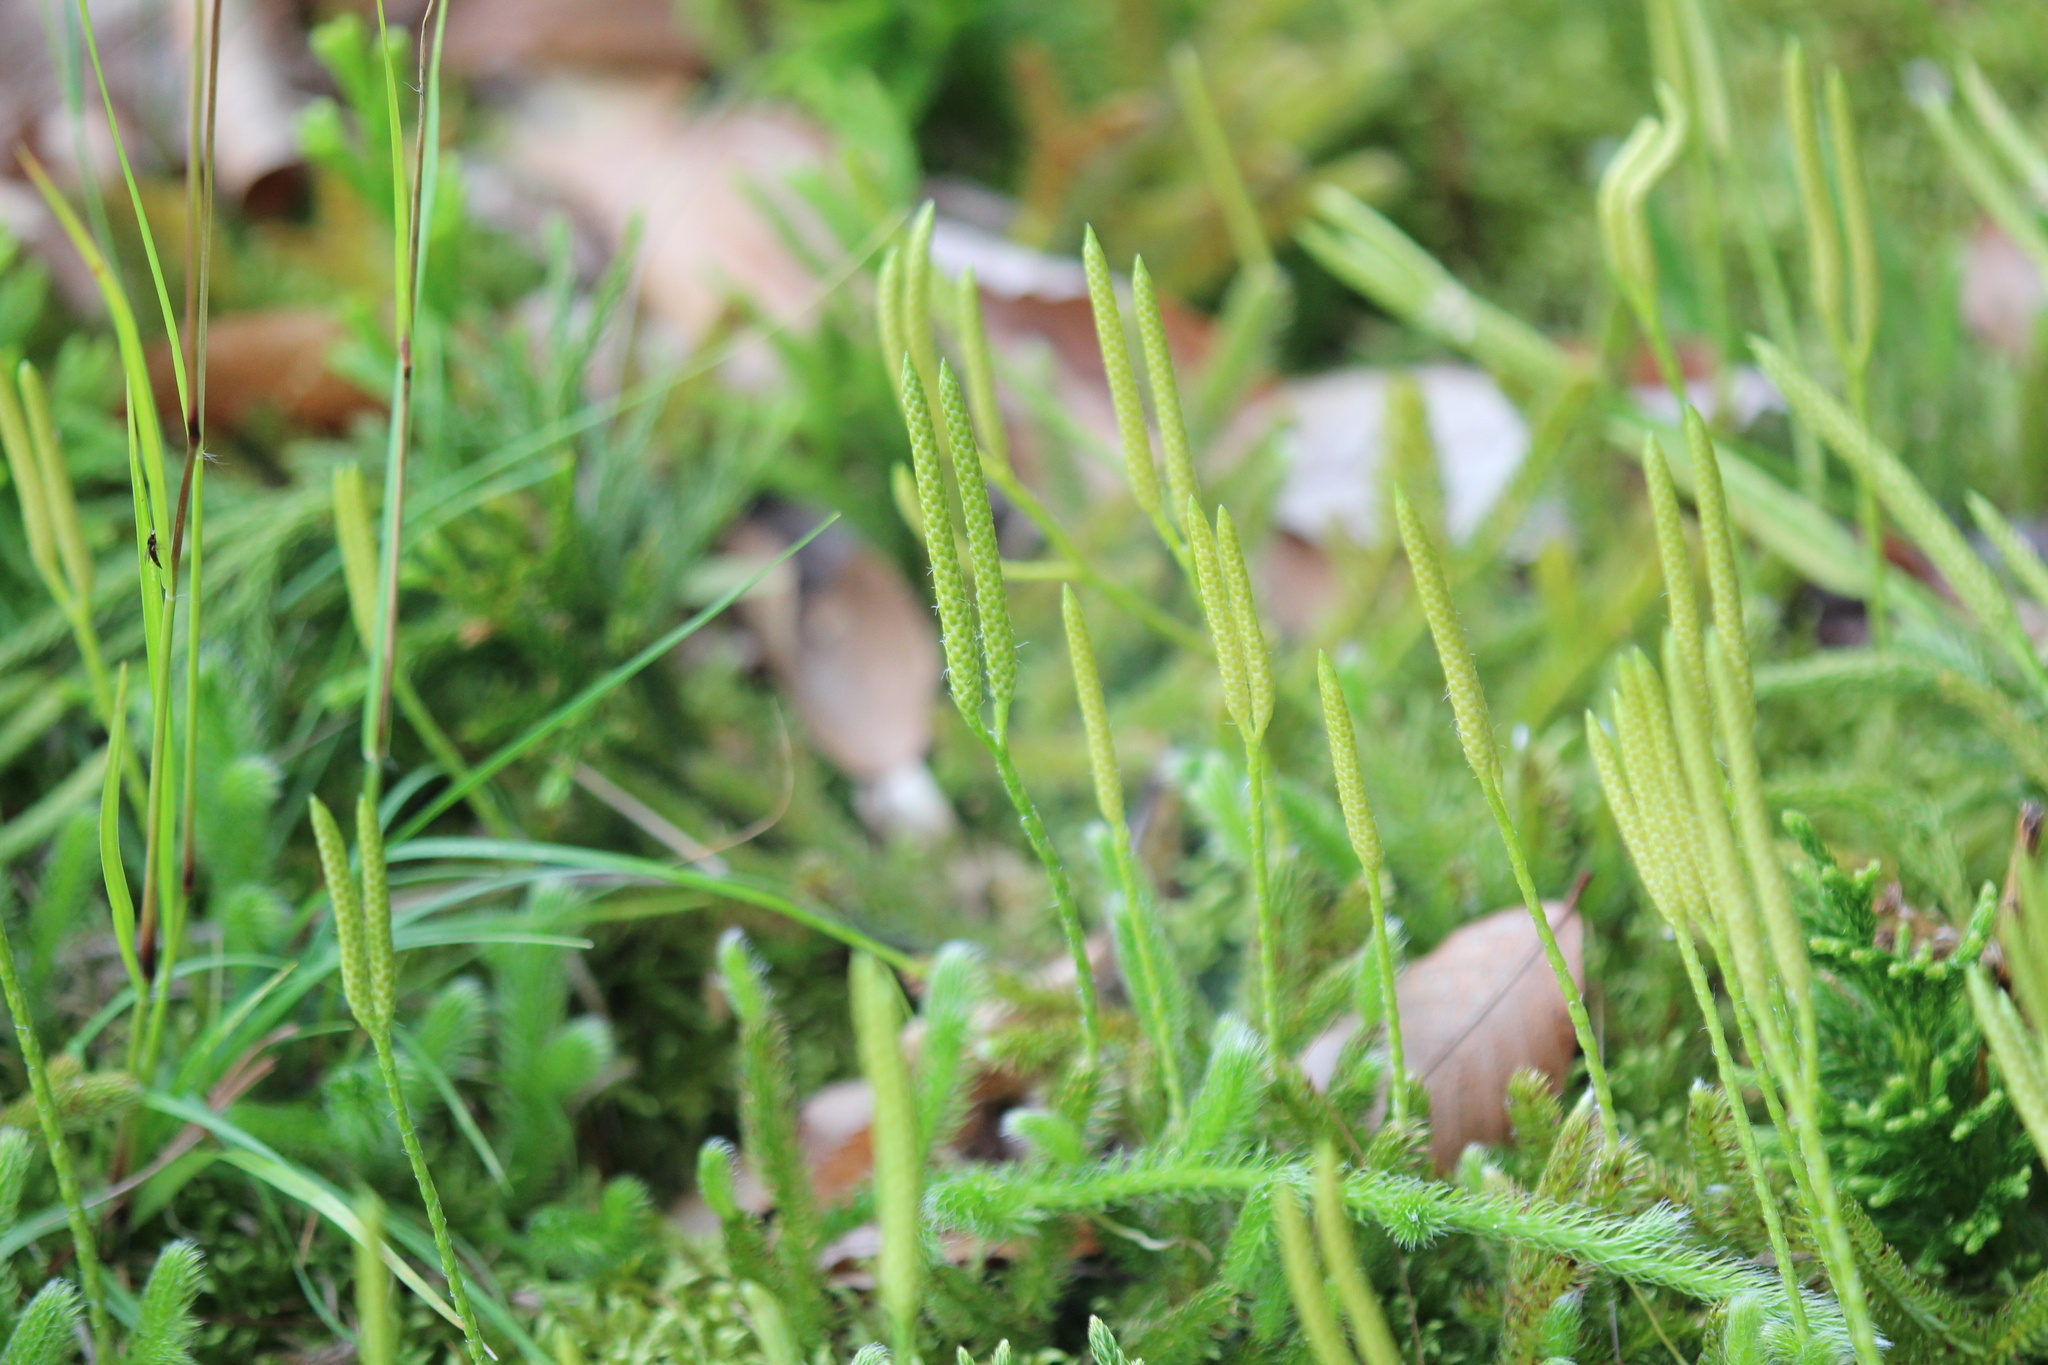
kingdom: Plantae
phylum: Tracheophyta
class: Lycopodiopsida
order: Lycopodiales
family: Lycopodiaceae
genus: Lycopodium
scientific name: Lycopodium clavatum
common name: Stag's-horn clubmoss
